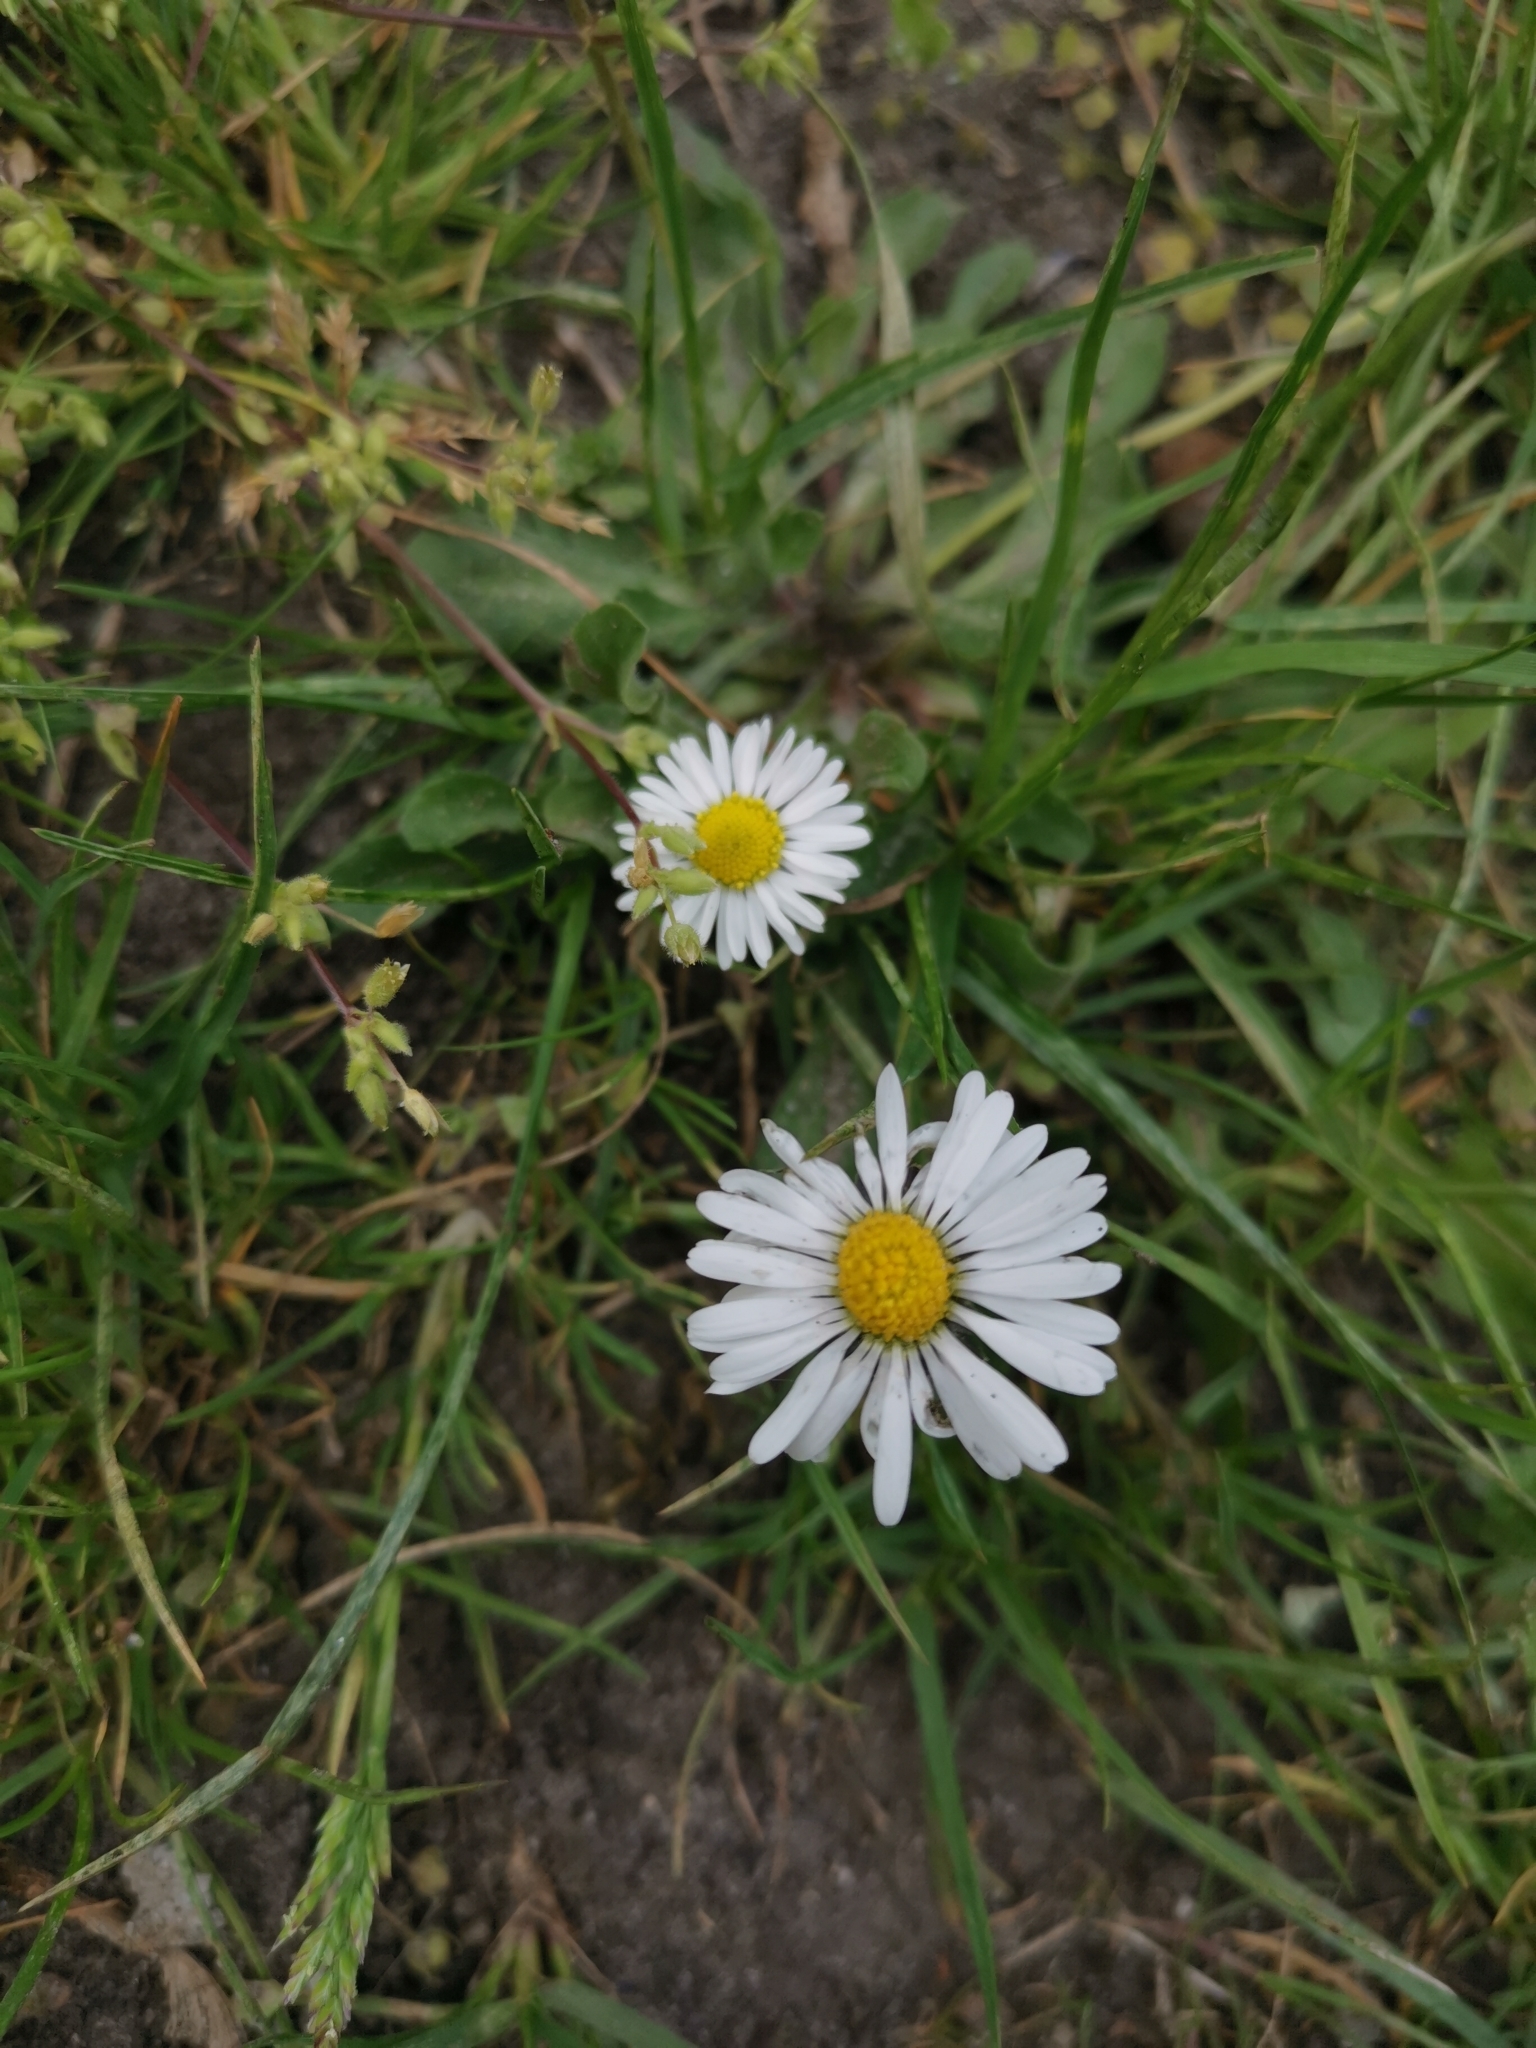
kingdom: Plantae
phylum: Tracheophyta
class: Magnoliopsida
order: Asterales
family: Asteraceae
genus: Bellis
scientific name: Bellis perennis
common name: Lawndaisy
